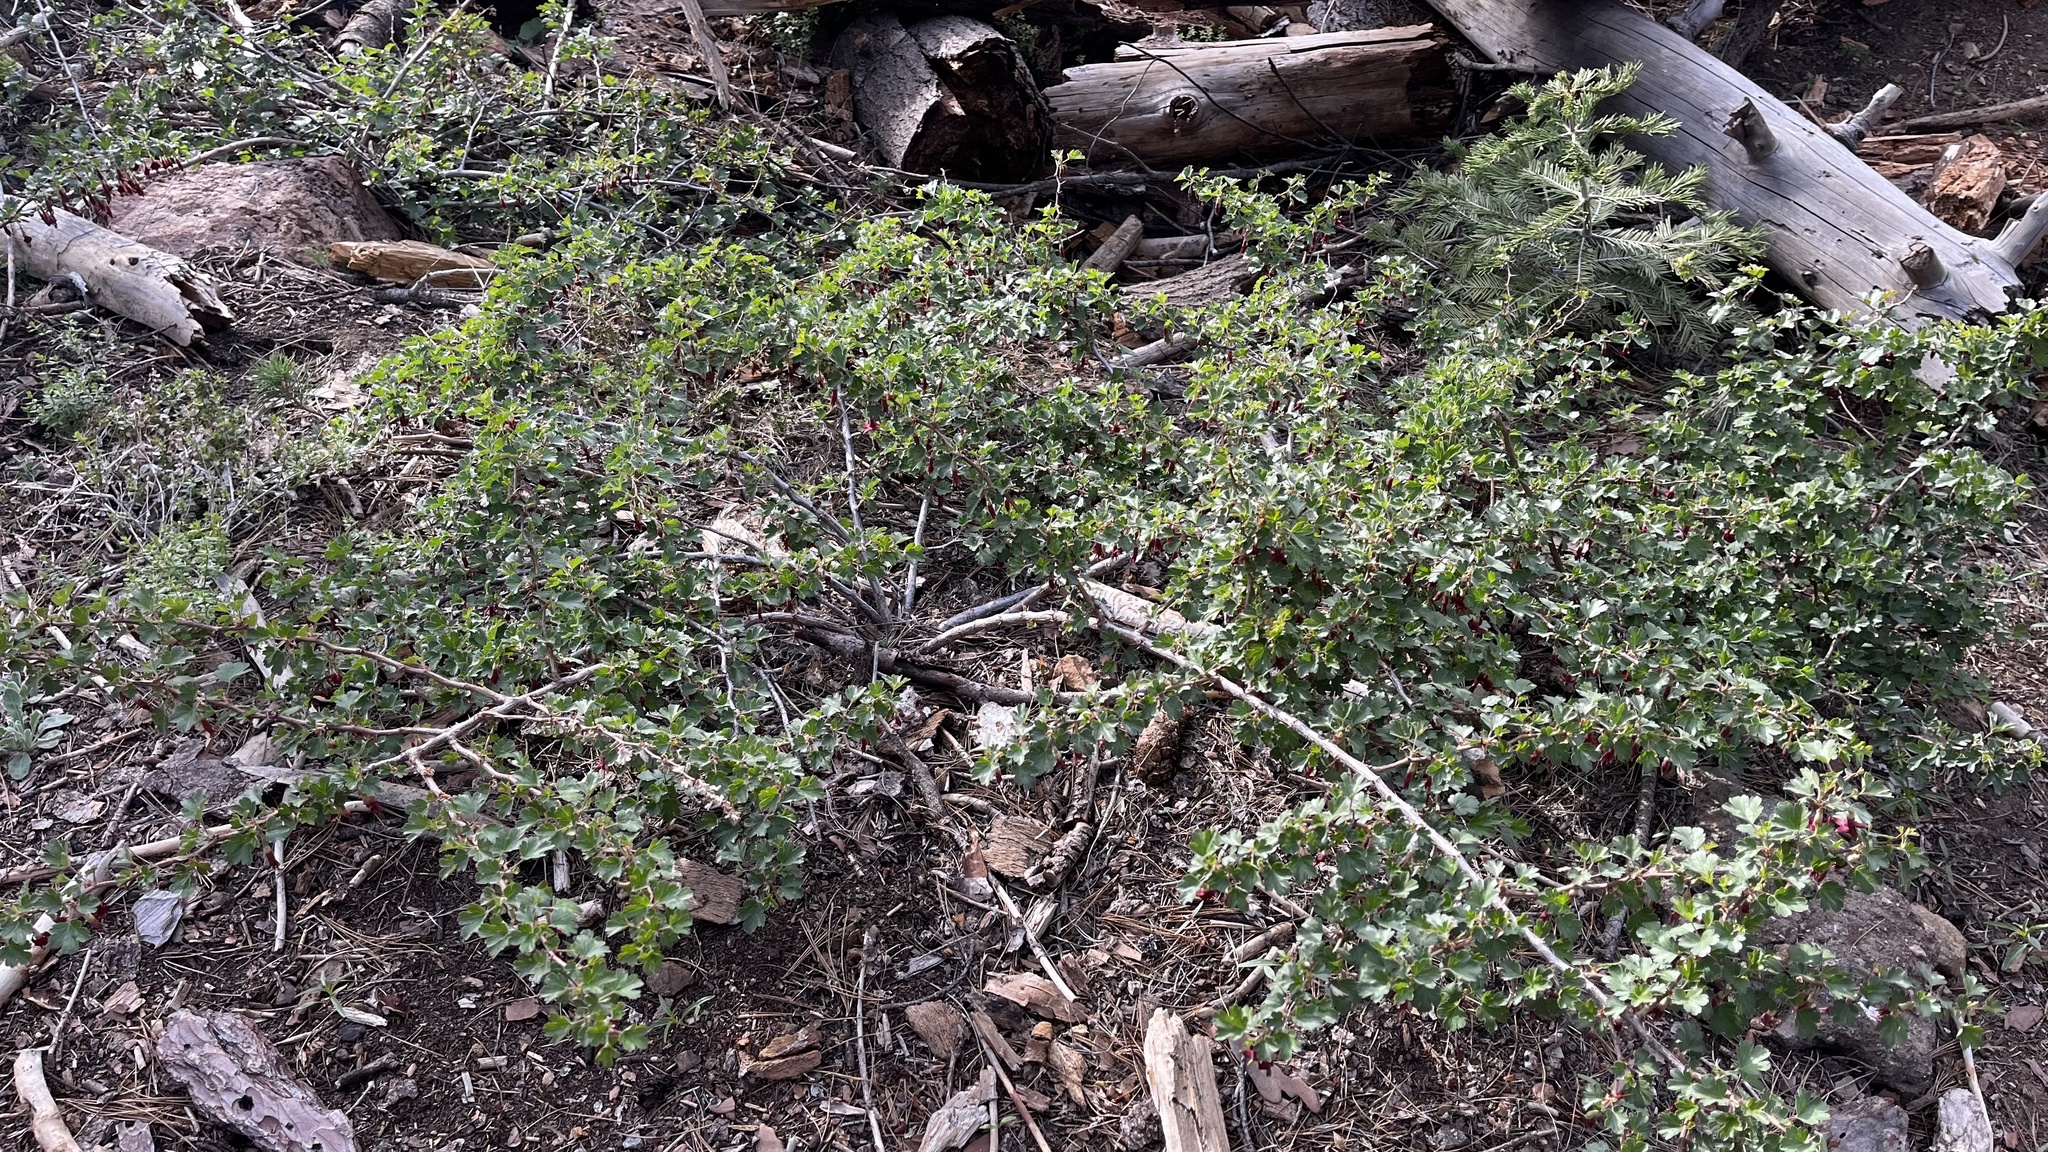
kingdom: Plantae
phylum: Tracheophyta
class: Magnoliopsida
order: Saxifragales
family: Grossulariaceae
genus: Ribes
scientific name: Ribes roezlii
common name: Sierra gooseberry
